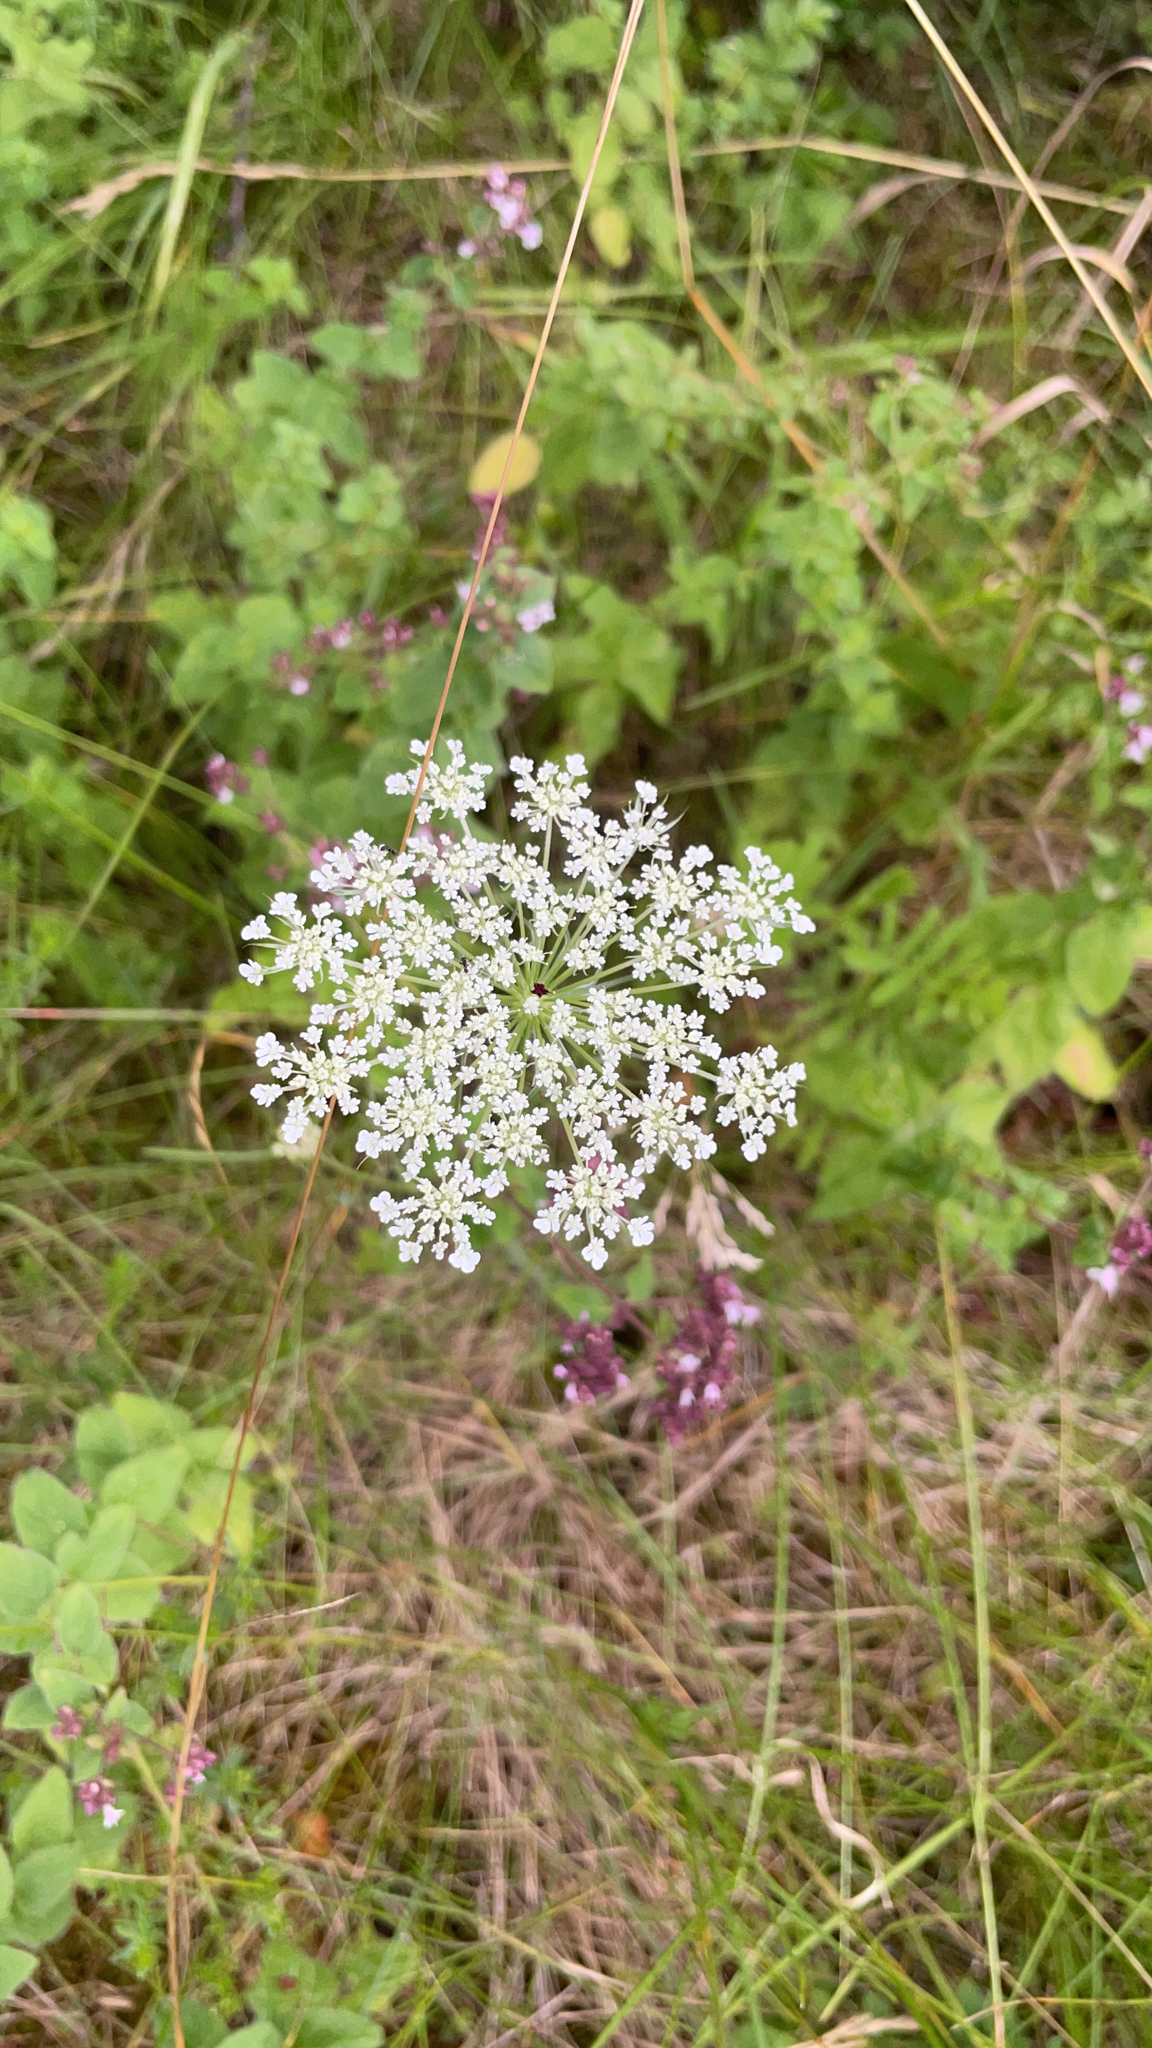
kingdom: Plantae
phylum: Tracheophyta
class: Magnoliopsida
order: Apiales
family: Apiaceae
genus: Daucus
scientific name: Daucus carota
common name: Wild carrot
